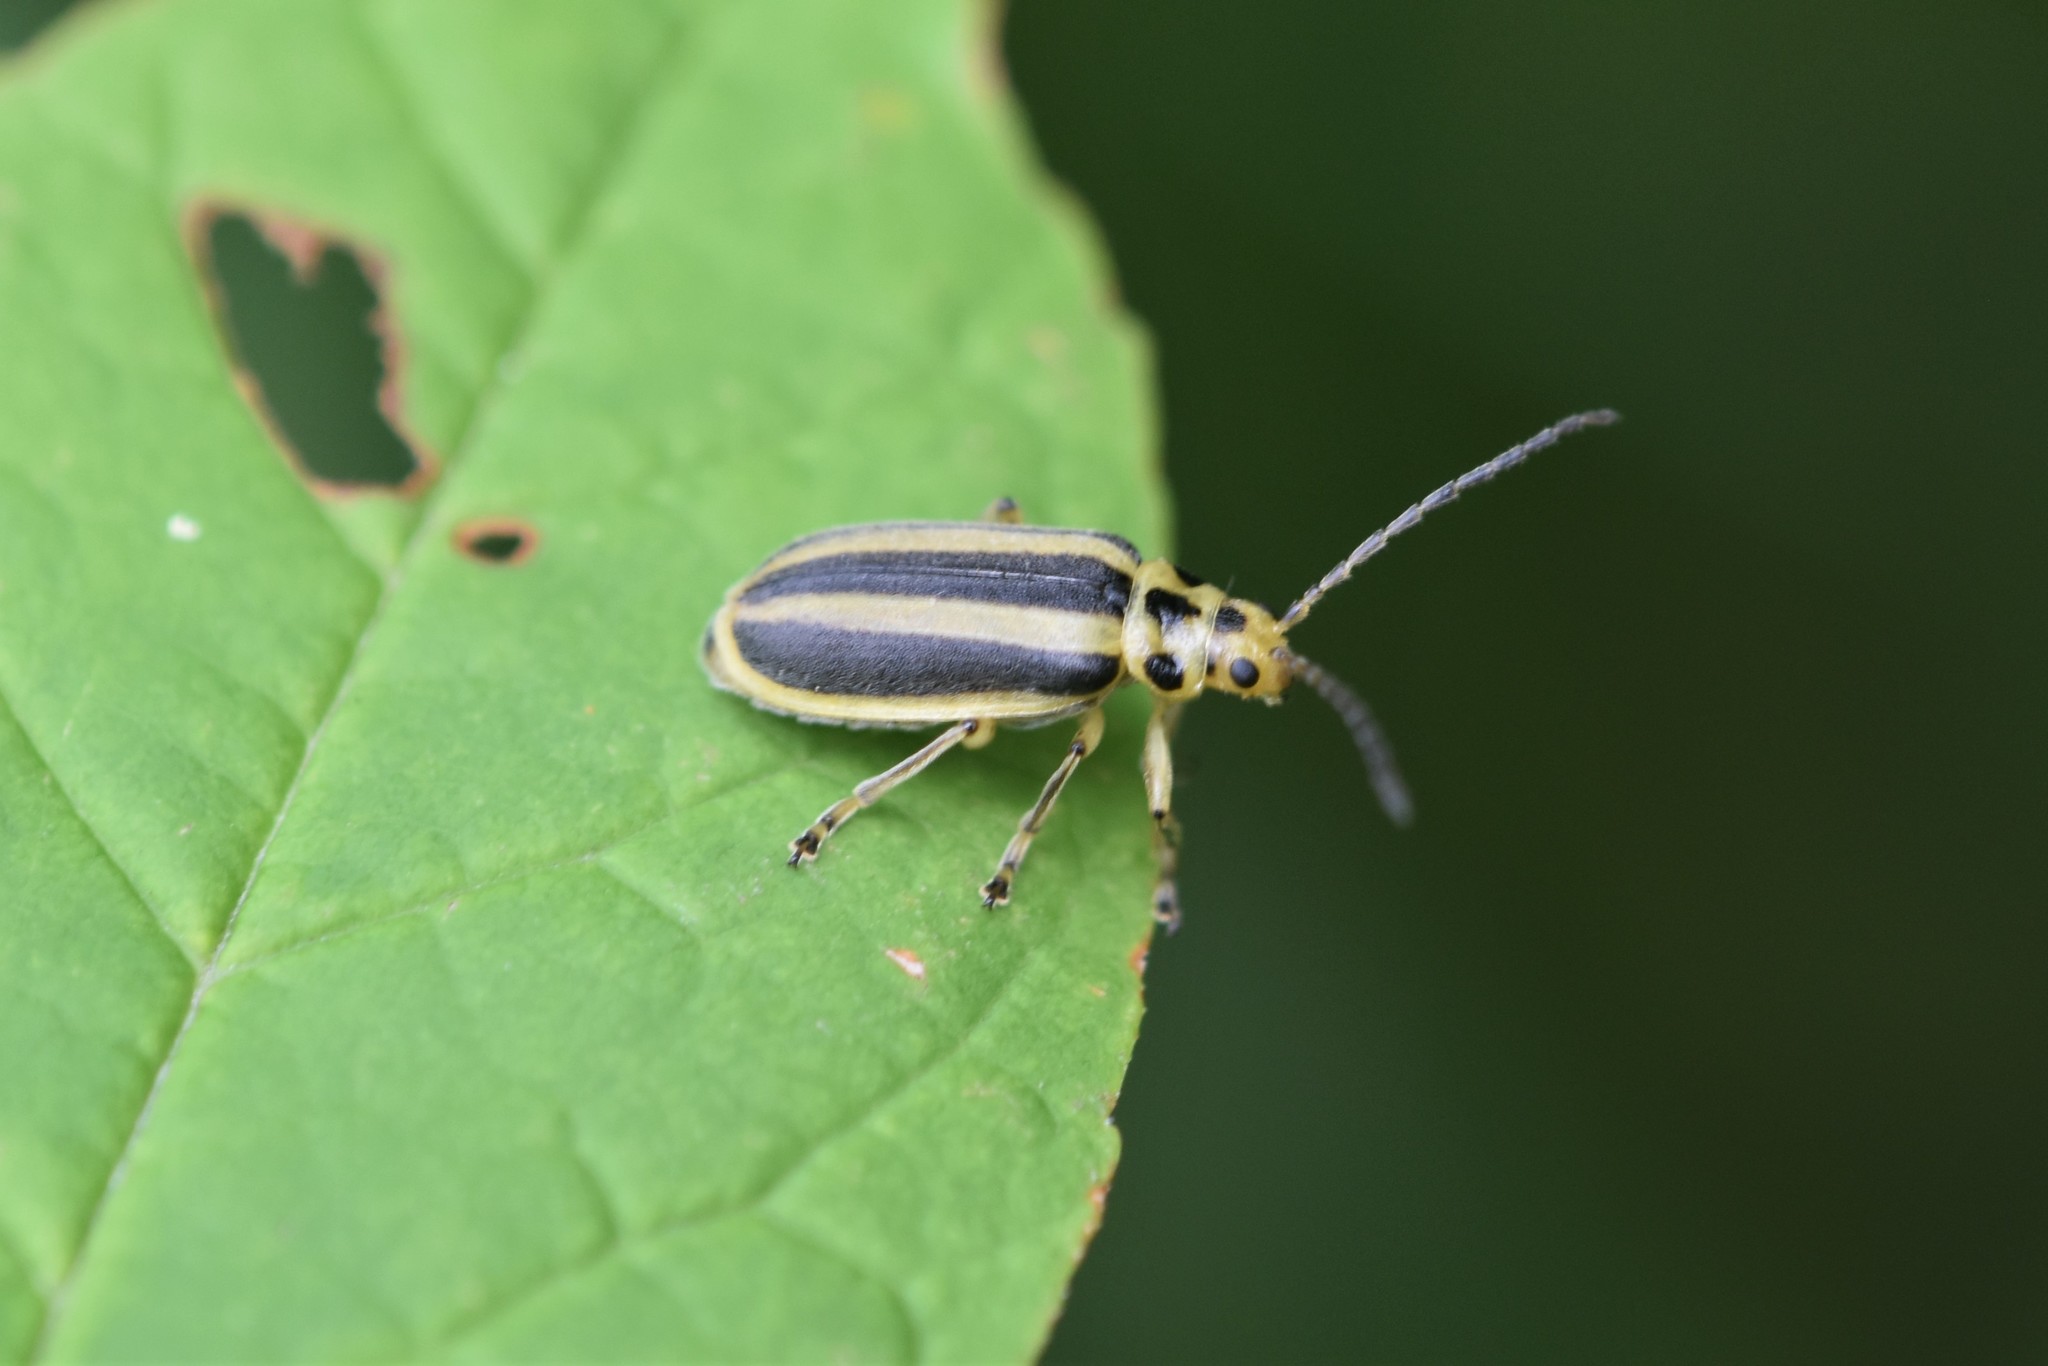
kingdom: Animalia
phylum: Arthropoda
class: Insecta
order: Coleoptera
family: Chrysomelidae
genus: Trirhabda
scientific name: Trirhabda canadensis
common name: Goldenrod leaf beetle
